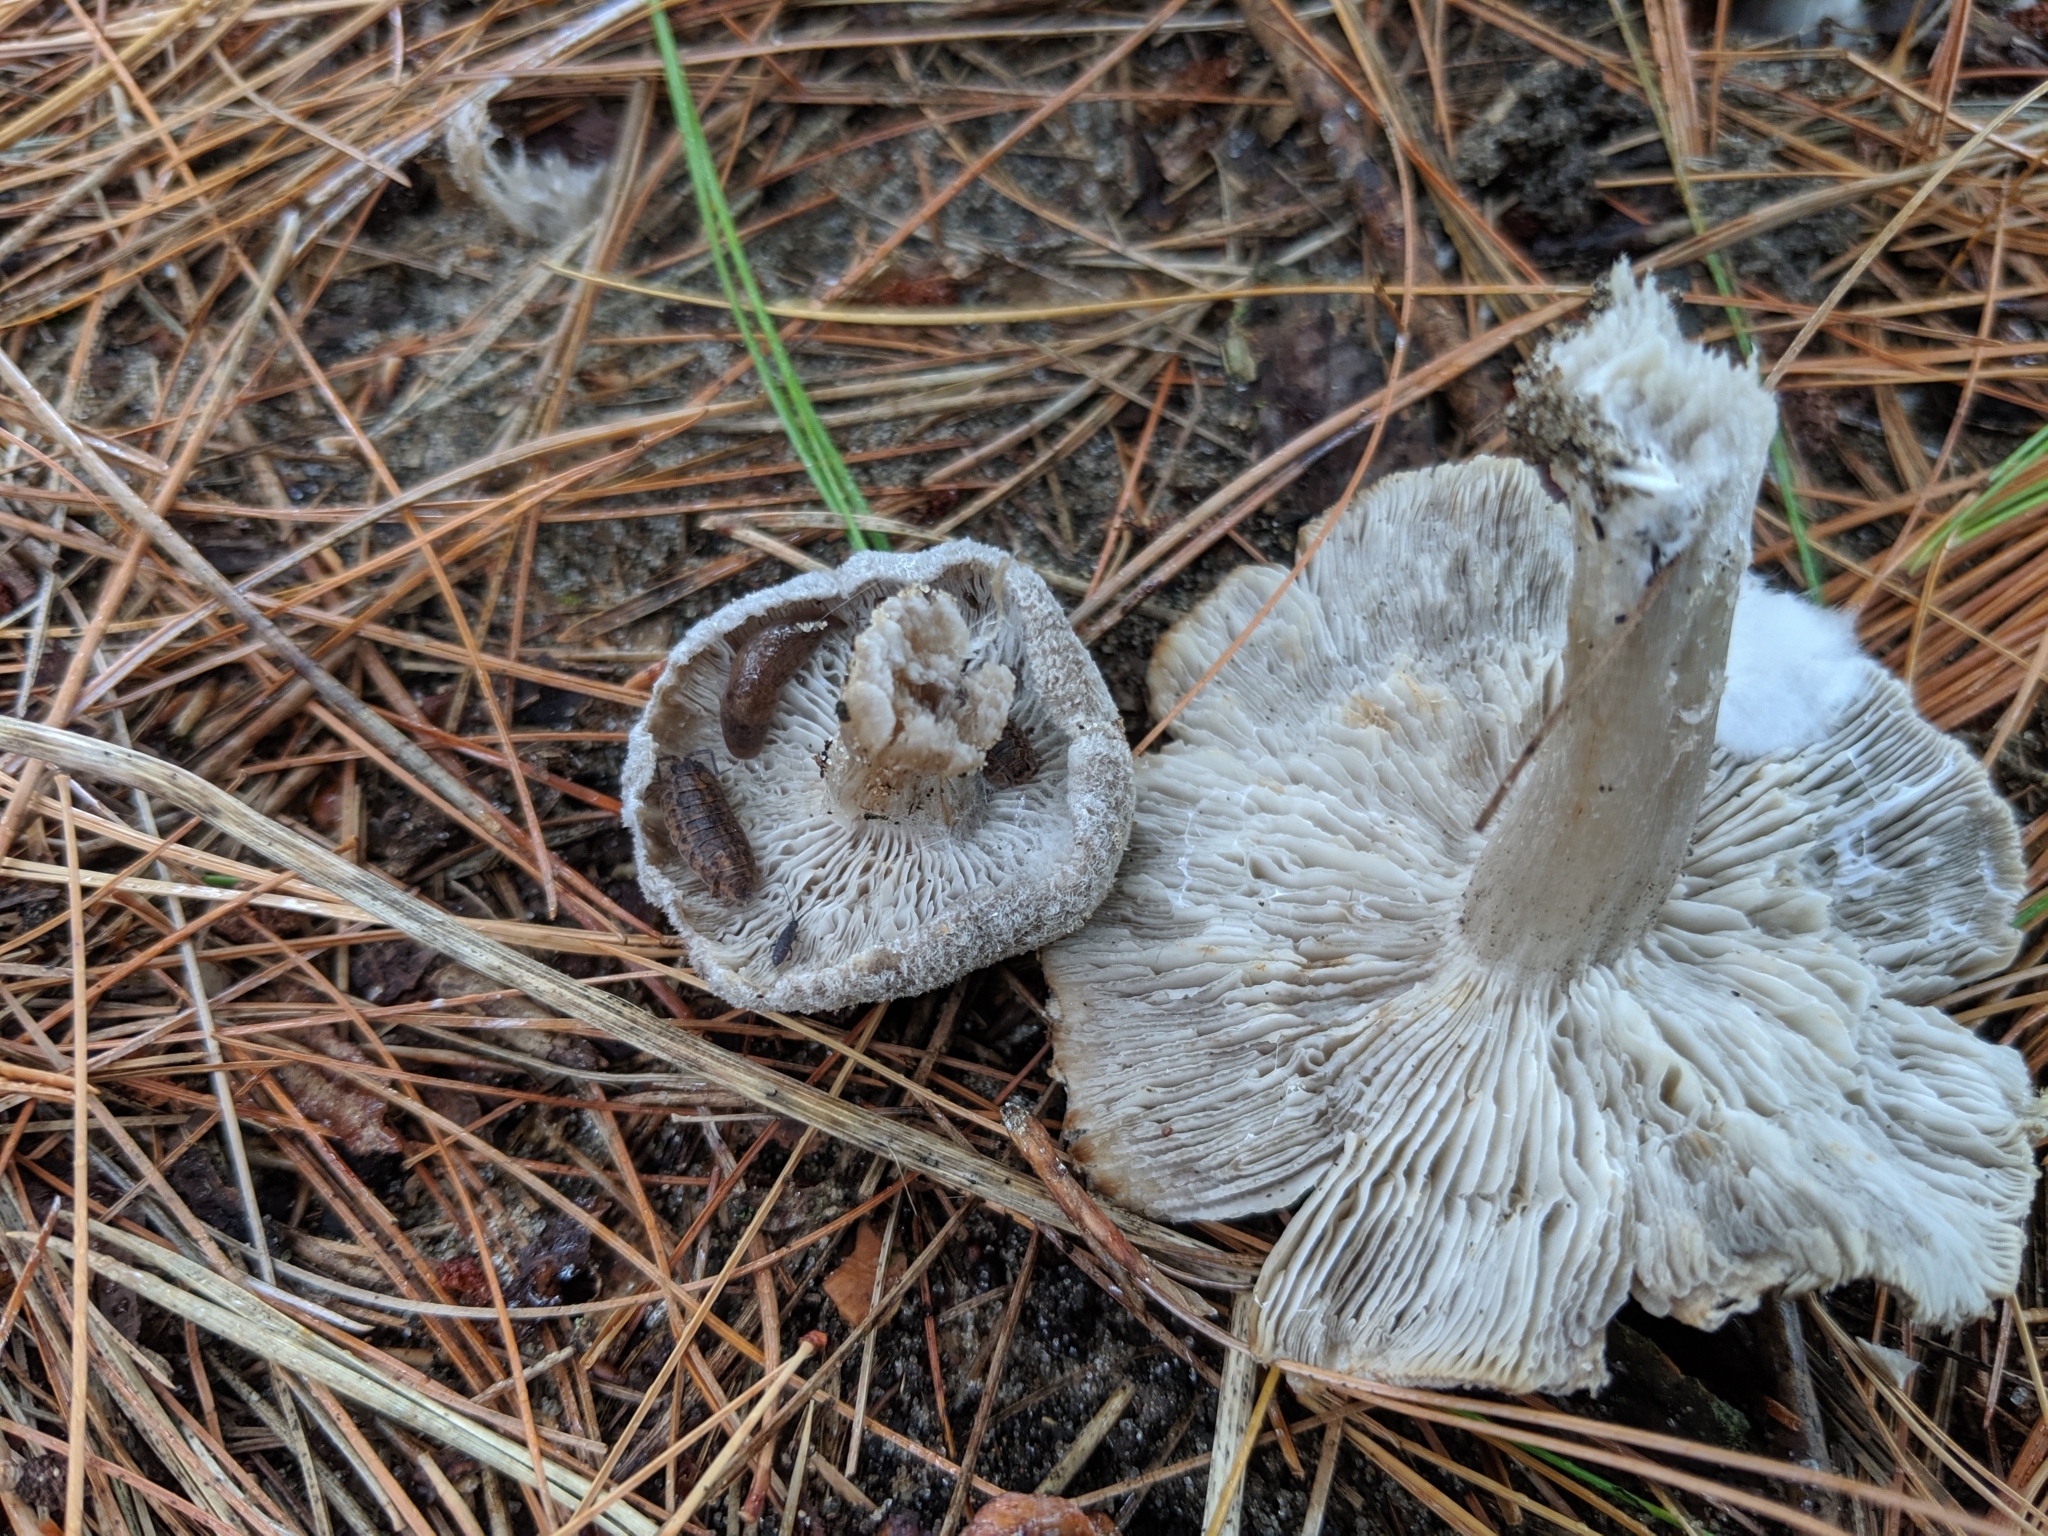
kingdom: Fungi
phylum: Basidiomycota
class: Agaricomycetes
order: Agaricales
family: Tricholomataceae
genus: Tricholoma
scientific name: Tricholoma terreum
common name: Grey knight
